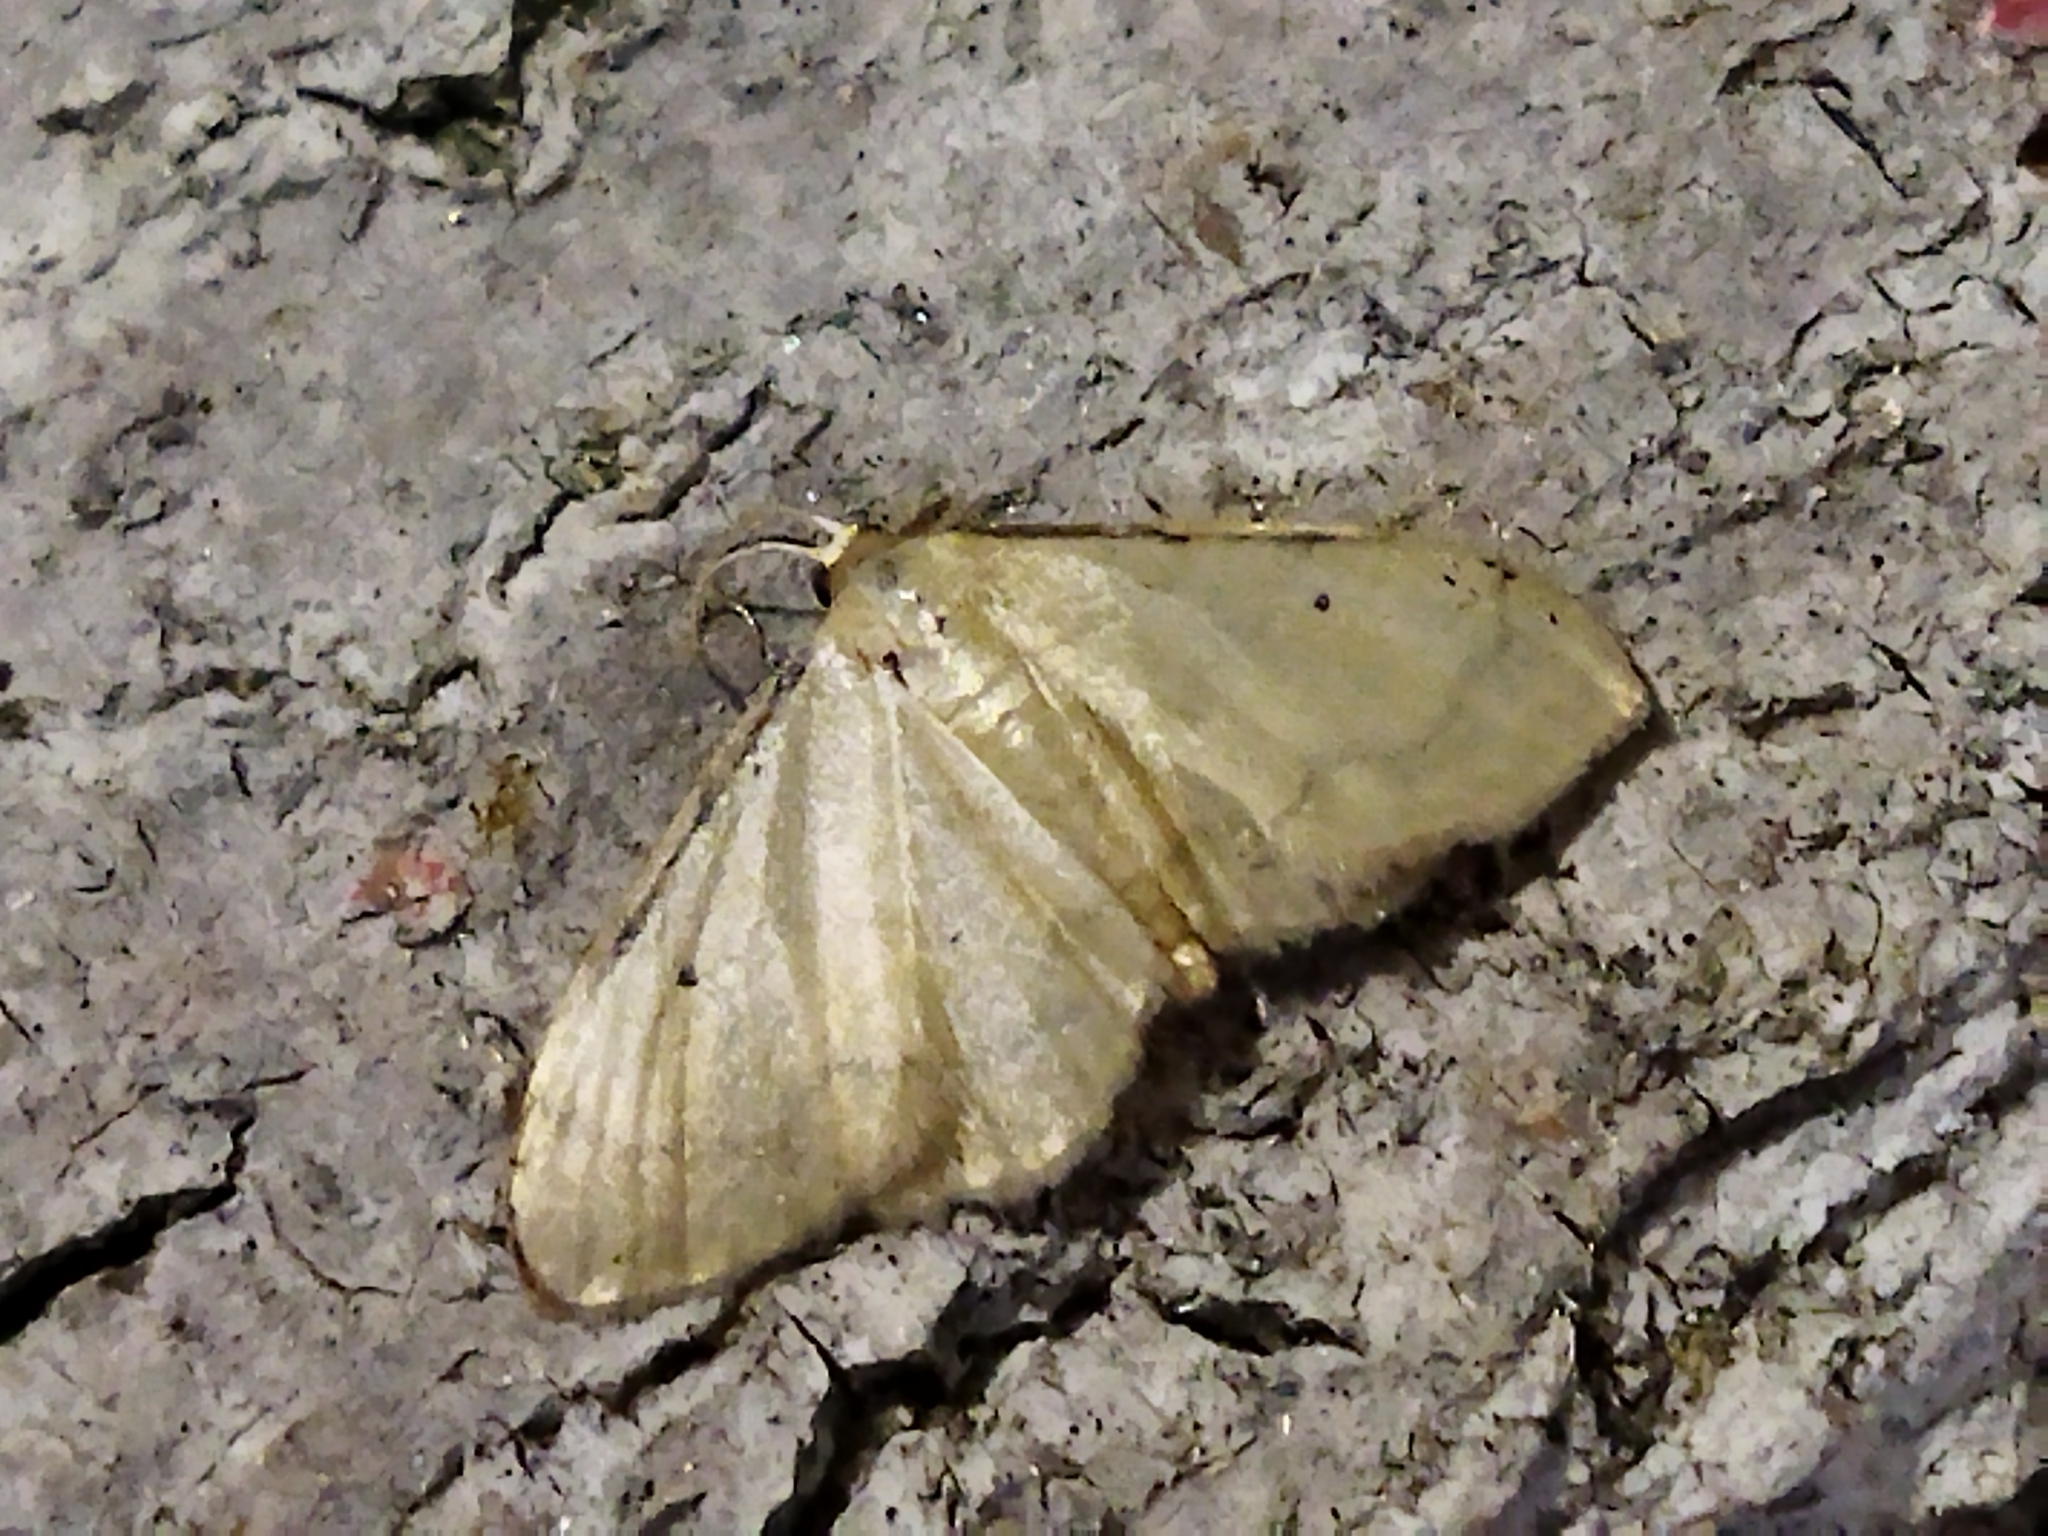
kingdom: Animalia
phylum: Arthropoda
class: Insecta
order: Lepidoptera
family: Geometridae
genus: Idaea
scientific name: Idaea politaria
